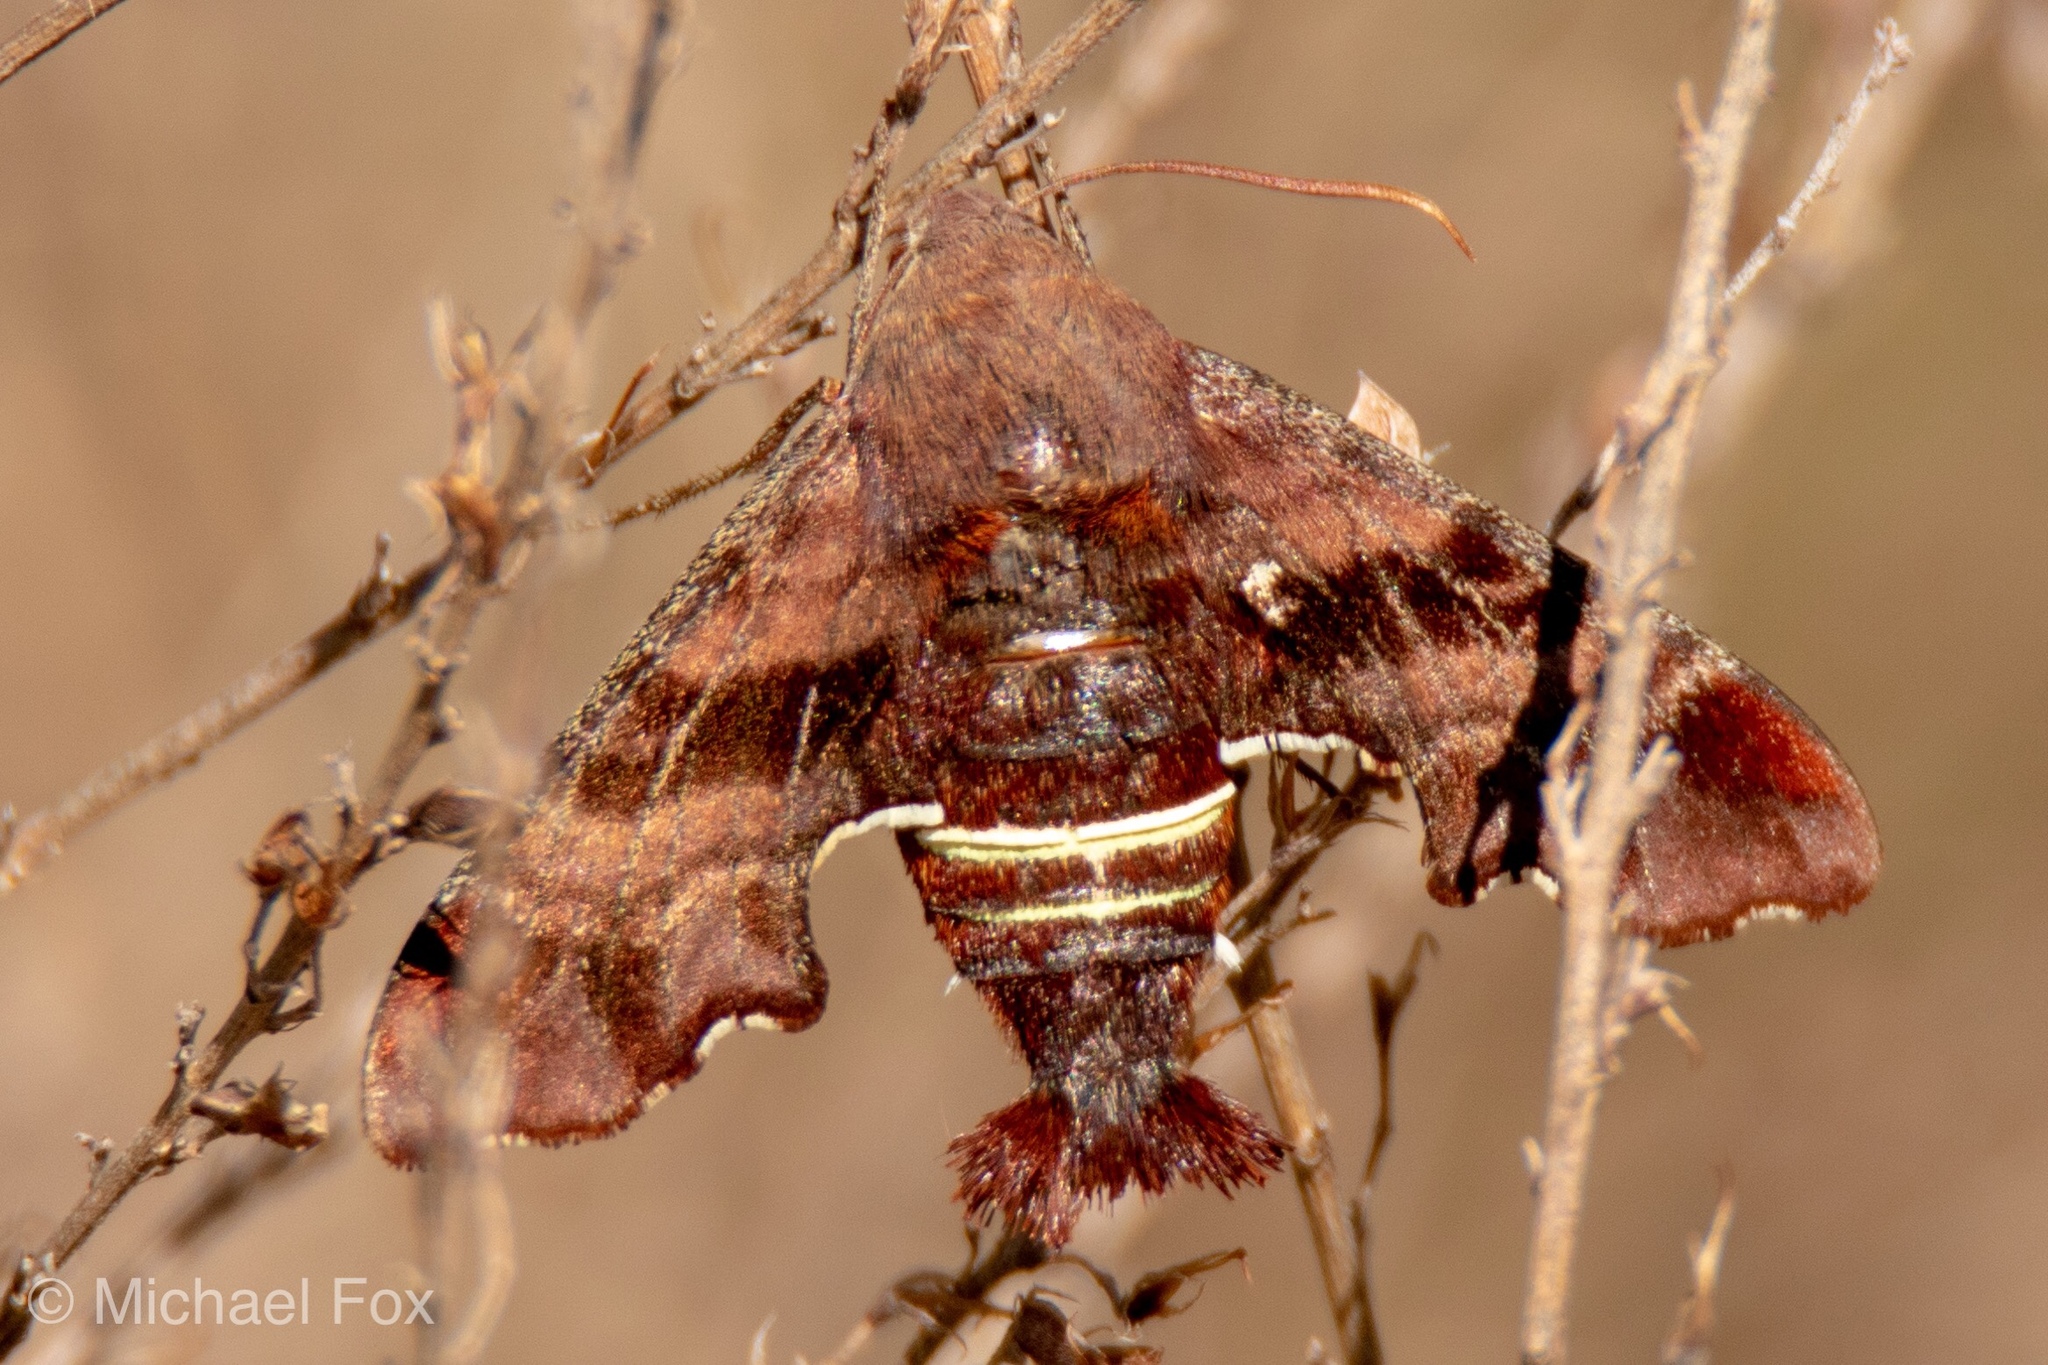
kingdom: Animalia
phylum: Arthropoda
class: Insecta
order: Lepidoptera
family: Sphingidae
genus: Amphion
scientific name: Amphion floridensis
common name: Nessus sphinx
